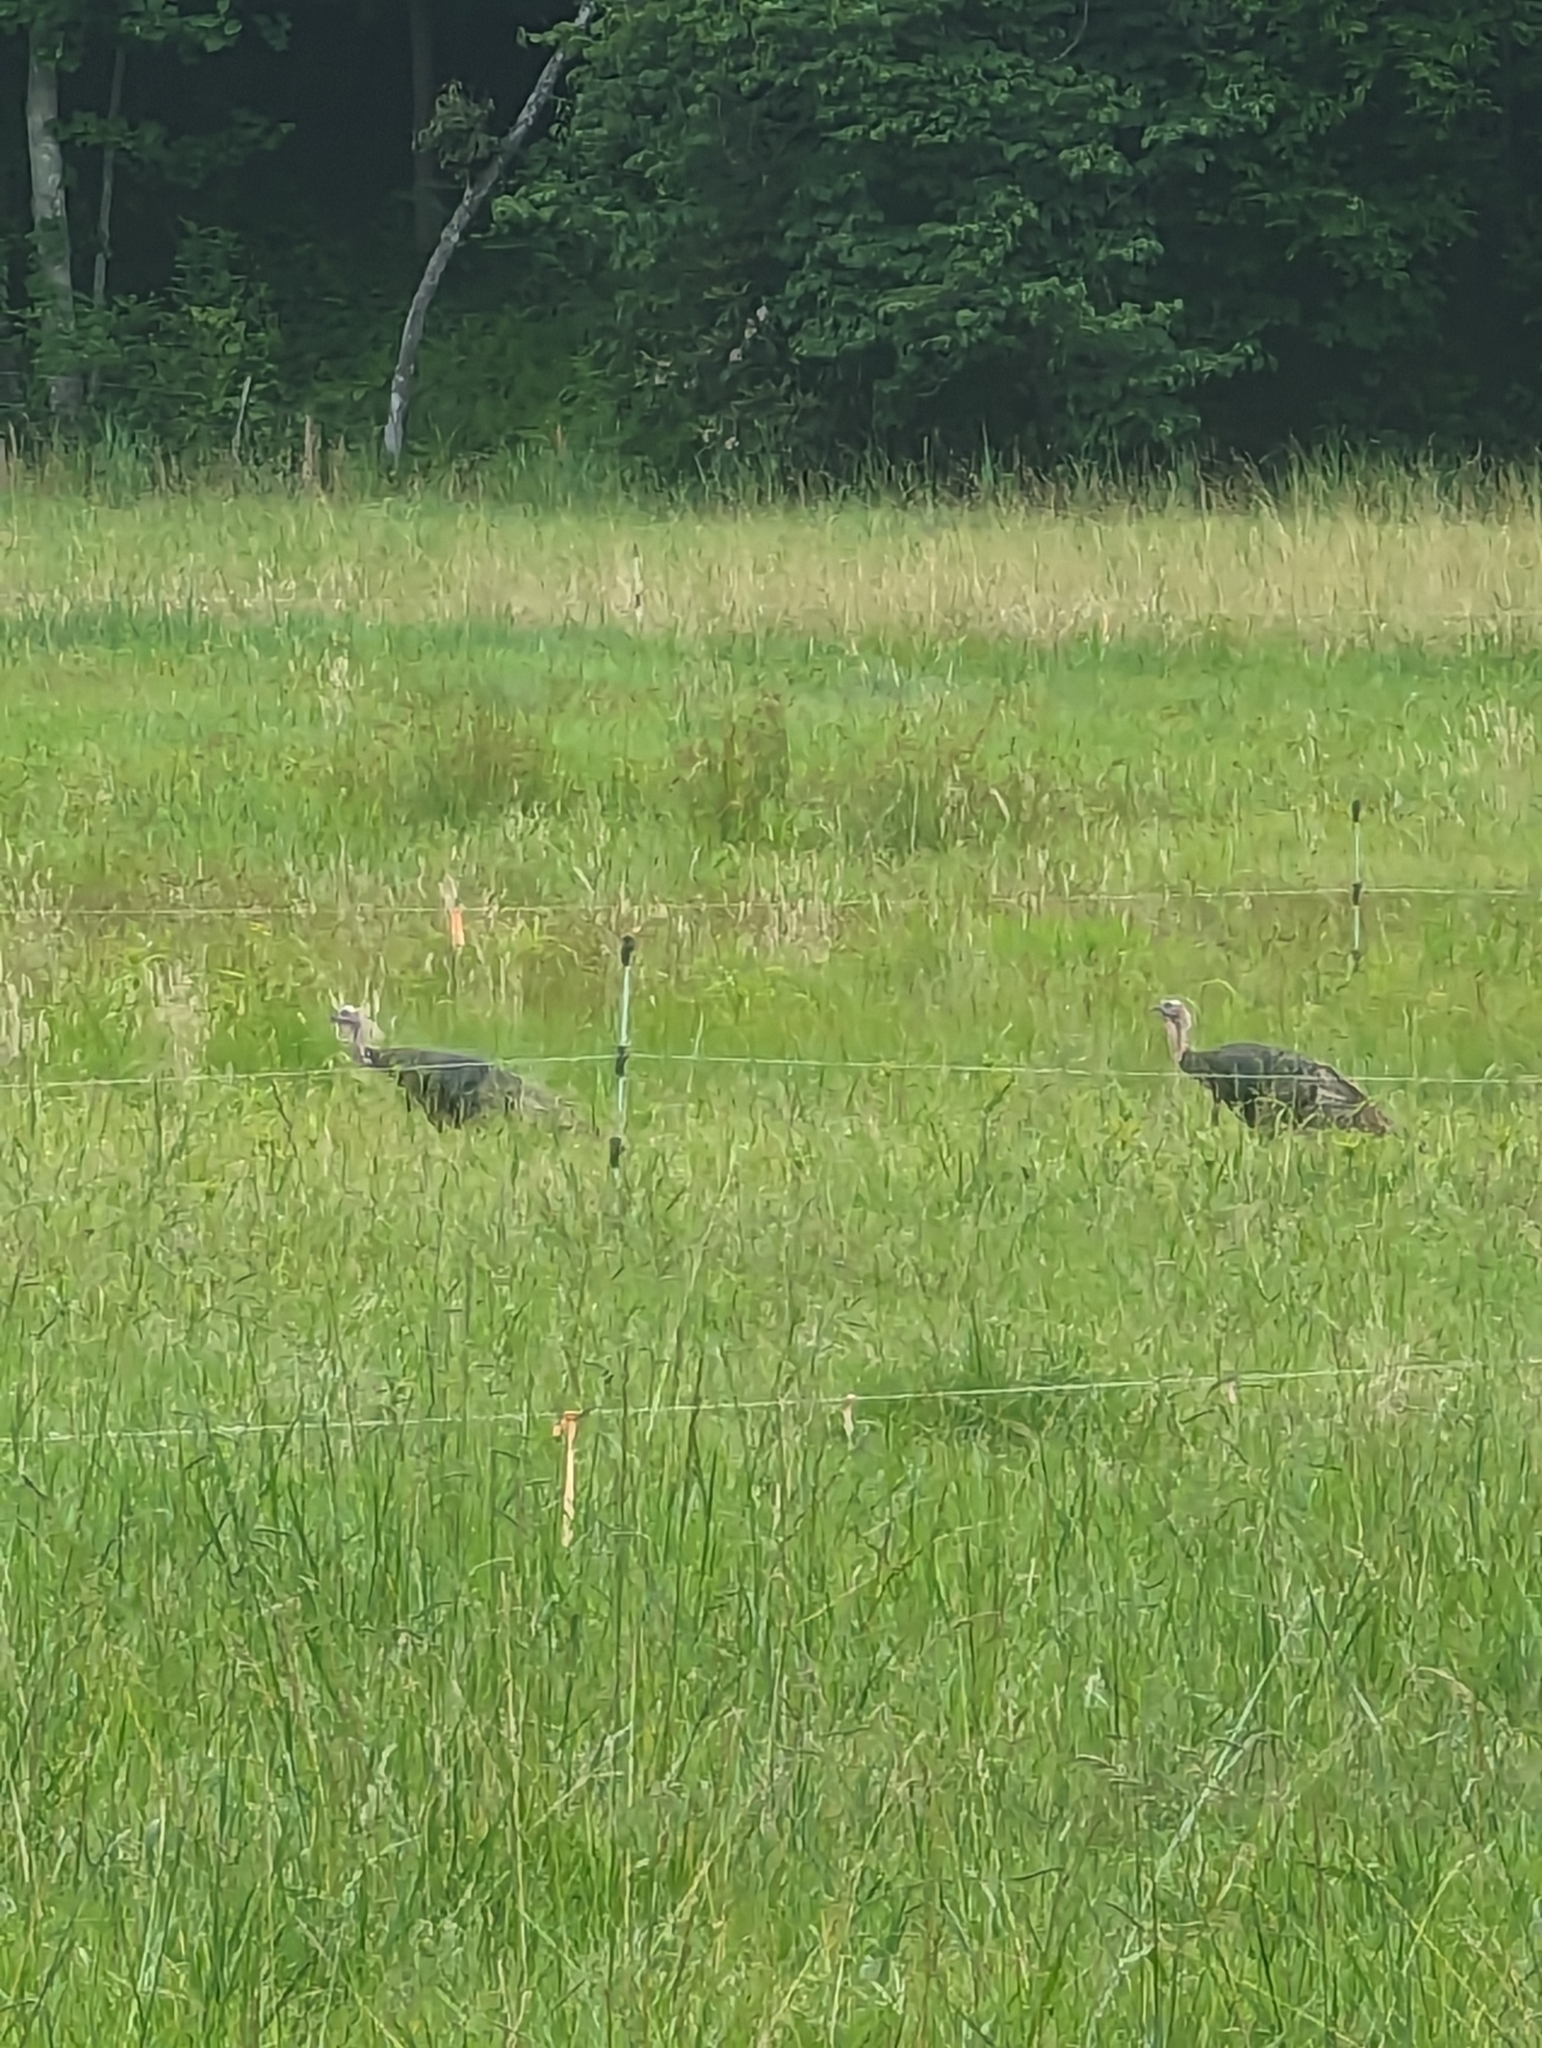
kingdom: Animalia
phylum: Chordata
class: Aves
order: Galliformes
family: Phasianidae
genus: Meleagris
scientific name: Meleagris gallopavo
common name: Wild turkey
